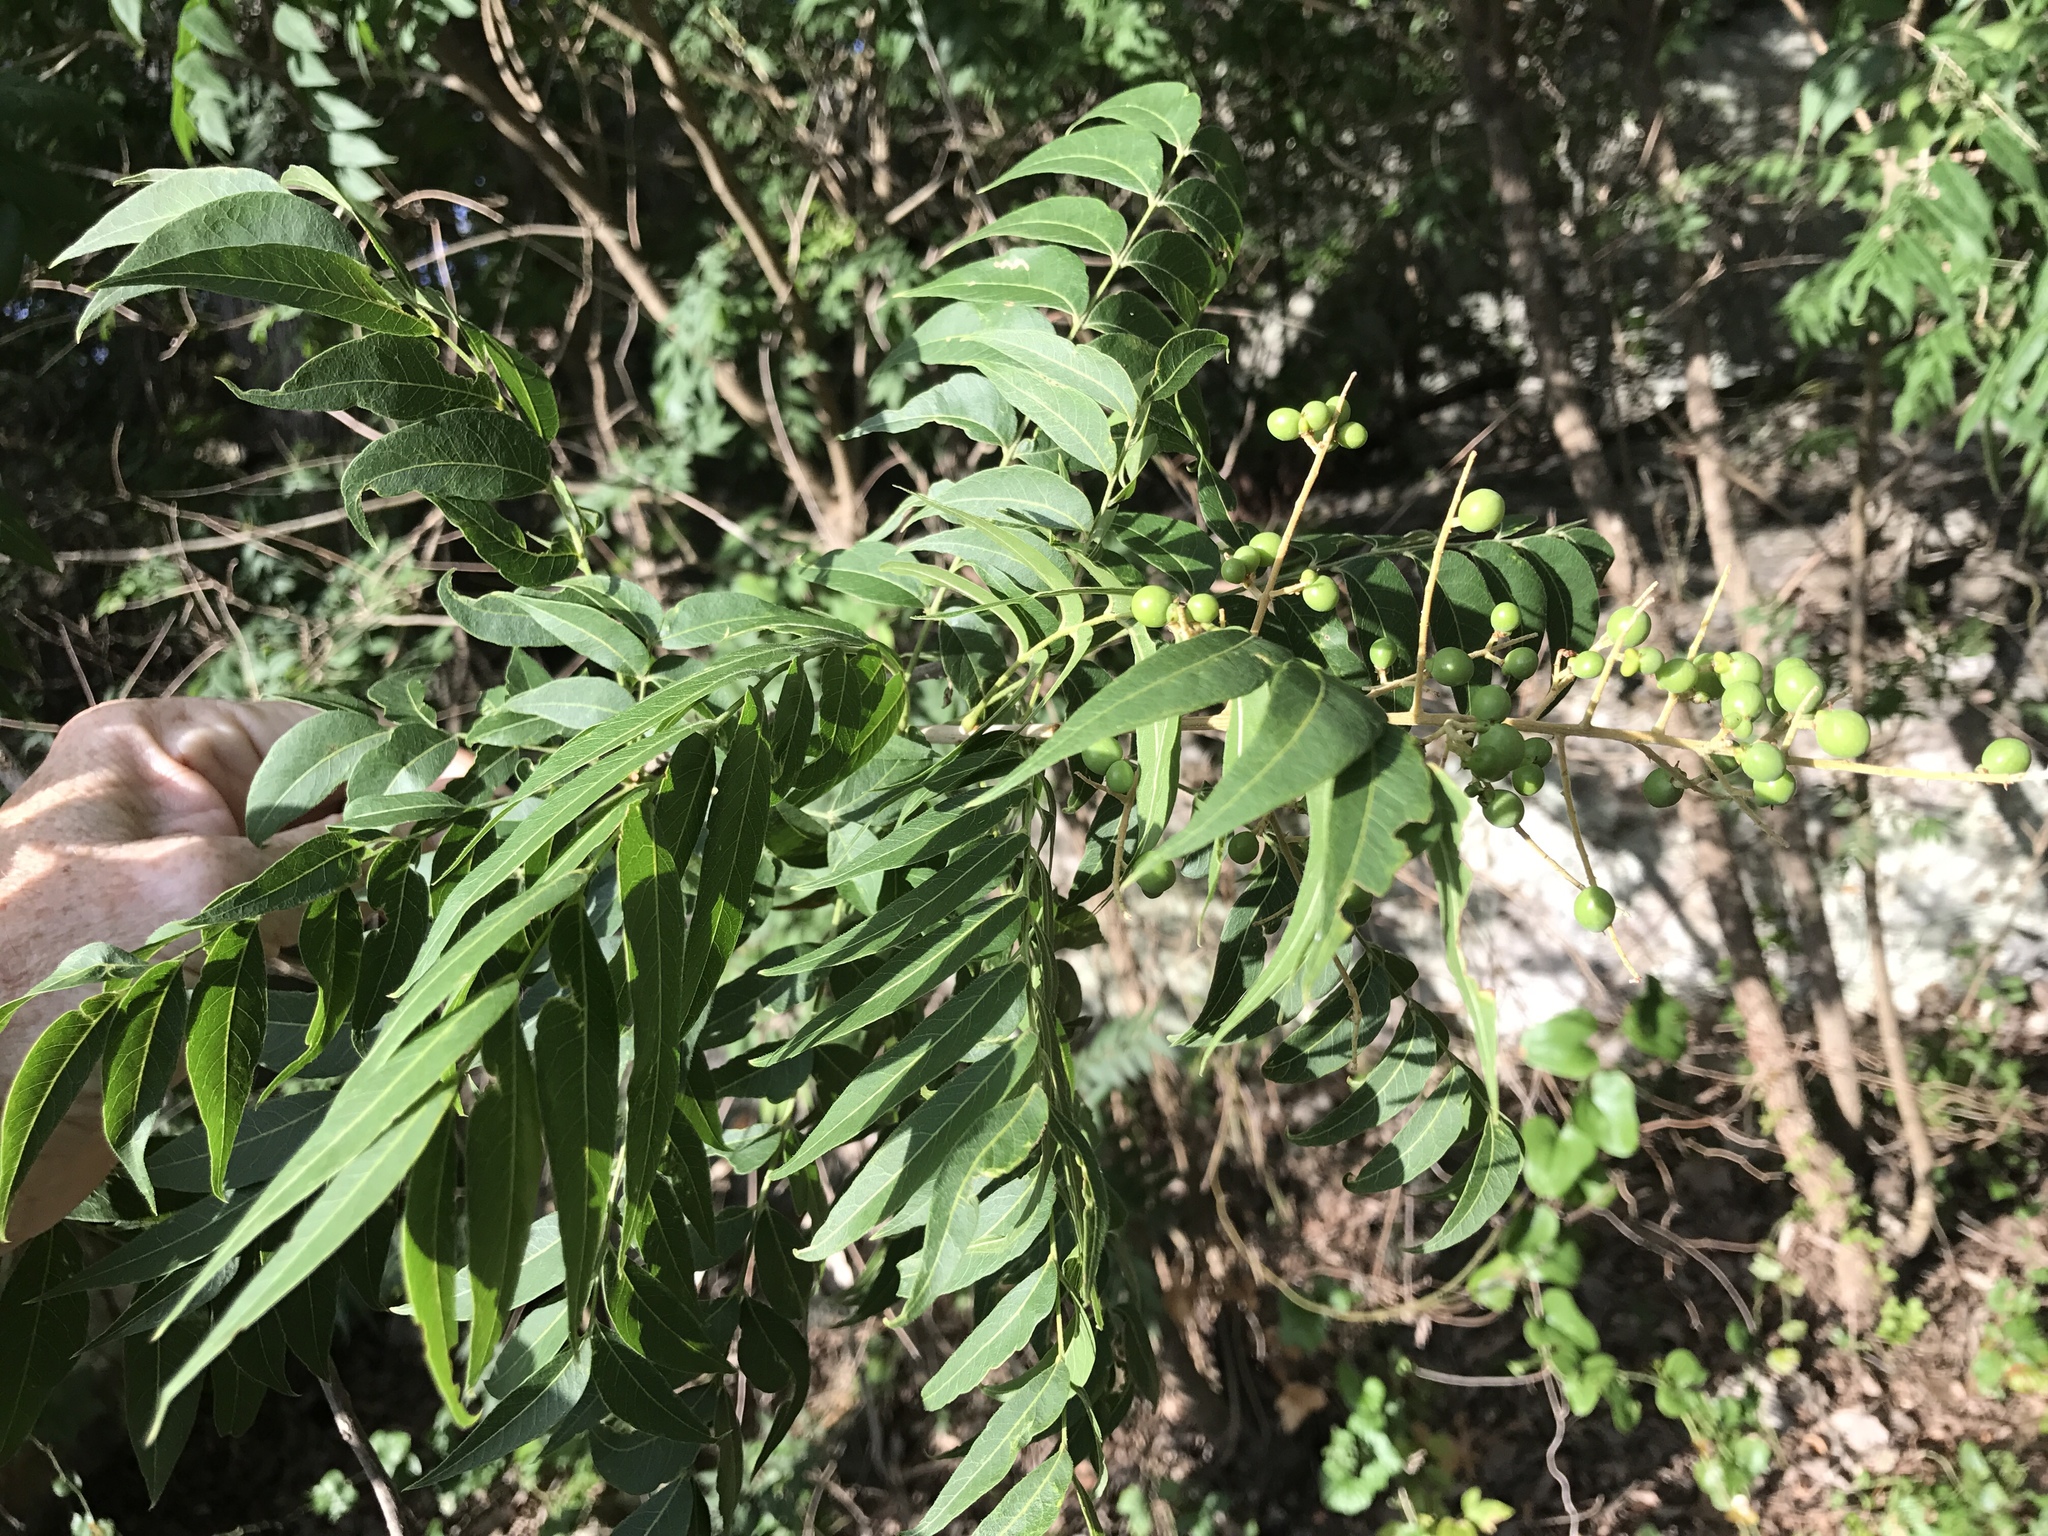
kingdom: Plantae
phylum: Tracheophyta
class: Magnoliopsida
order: Sapindales
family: Sapindaceae
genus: Sapindus
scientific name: Sapindus drummondii
